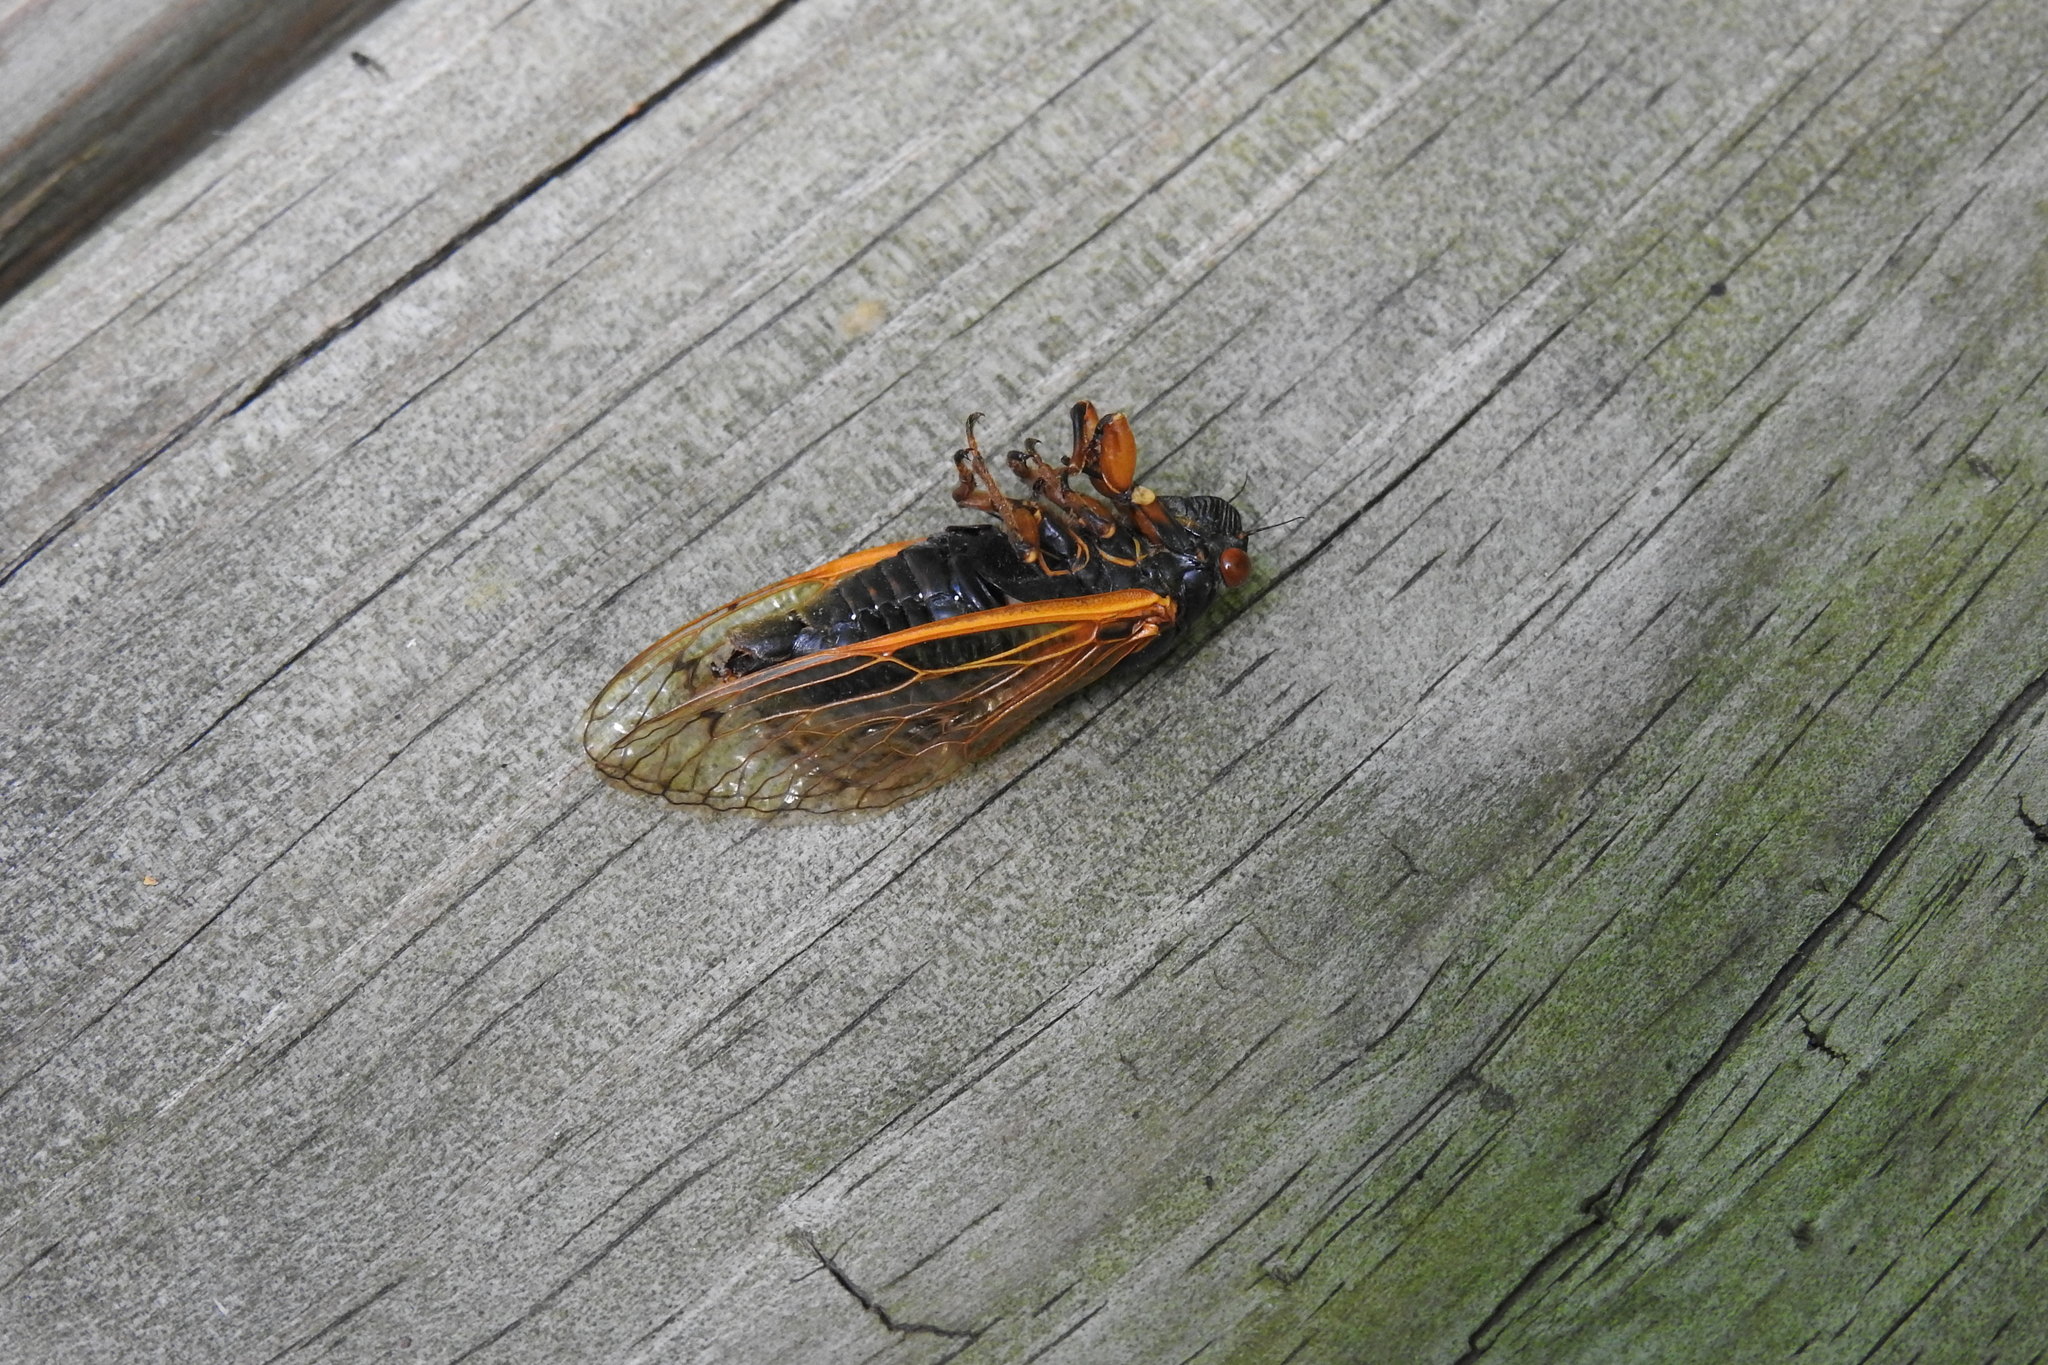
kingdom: Animalia
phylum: Arthropoda
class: Insecta
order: Hemiptera
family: Cicadidae
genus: Magicicada
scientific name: Magicicada cassini
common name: Cassin's 17-year cicada
